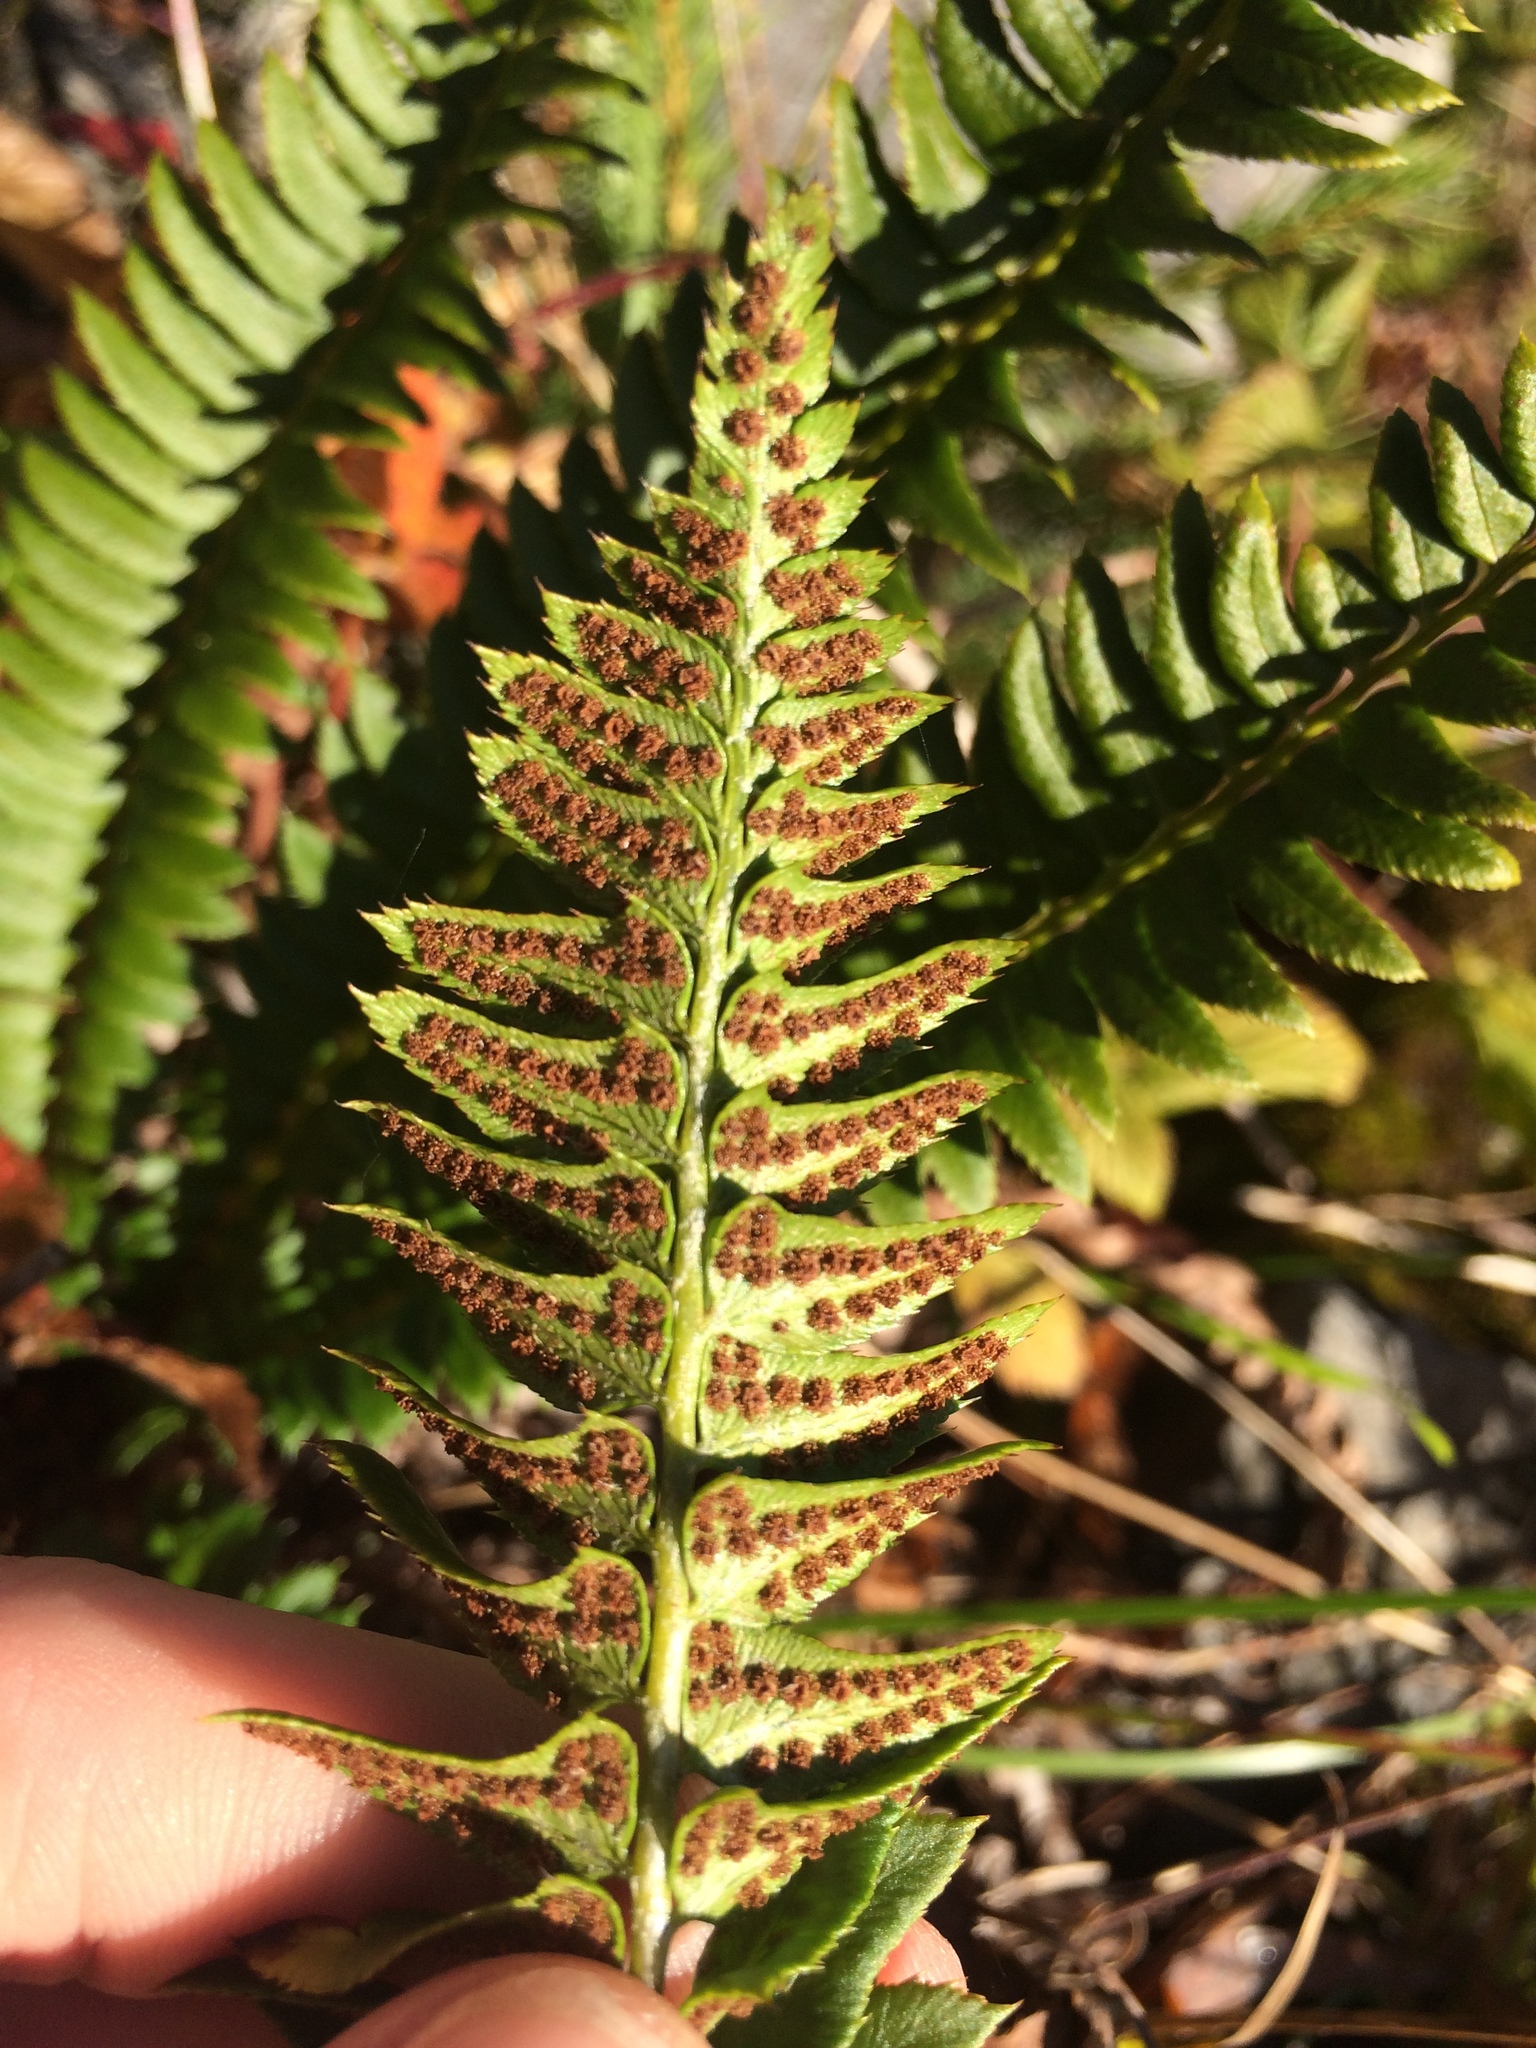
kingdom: Plantae
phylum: Tracheophyta
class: Polypodiopsida
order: Polypodiales
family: Dryopteridaceae
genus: Polystichum
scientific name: Polystichum lonchitis
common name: Holly fern
